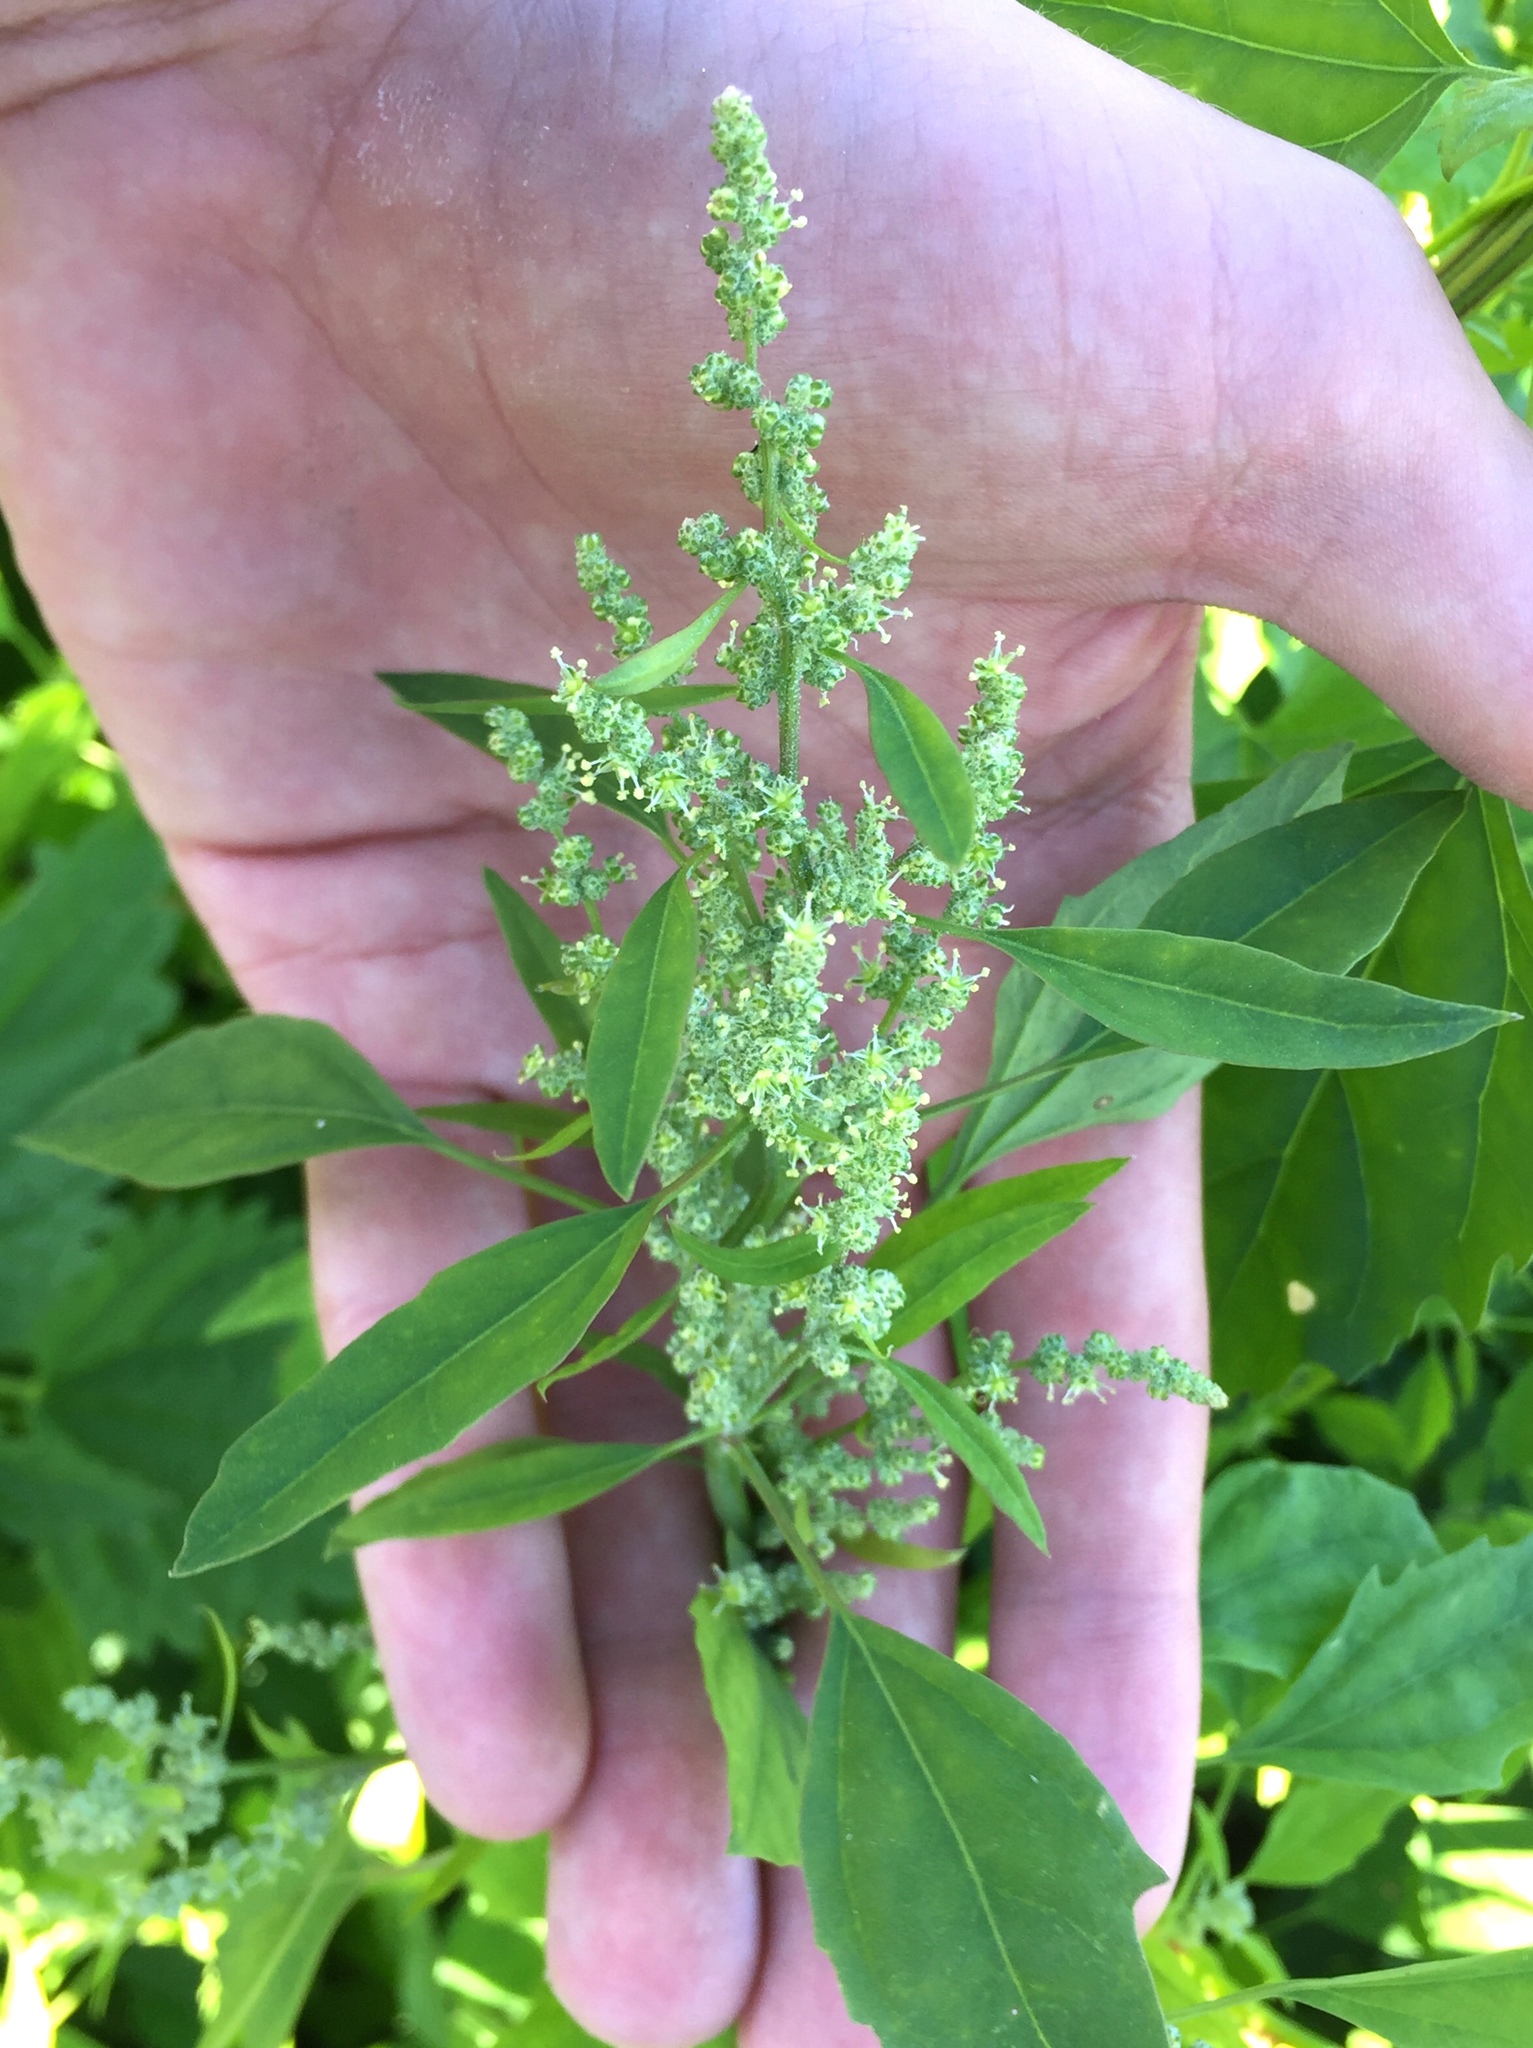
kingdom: Plantae
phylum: Tracheophyta
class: Magnoliopsida
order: Caryophyllales
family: Amaranthaceae
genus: Chenopodium
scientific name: Chenopodium album
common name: Fat-hen
